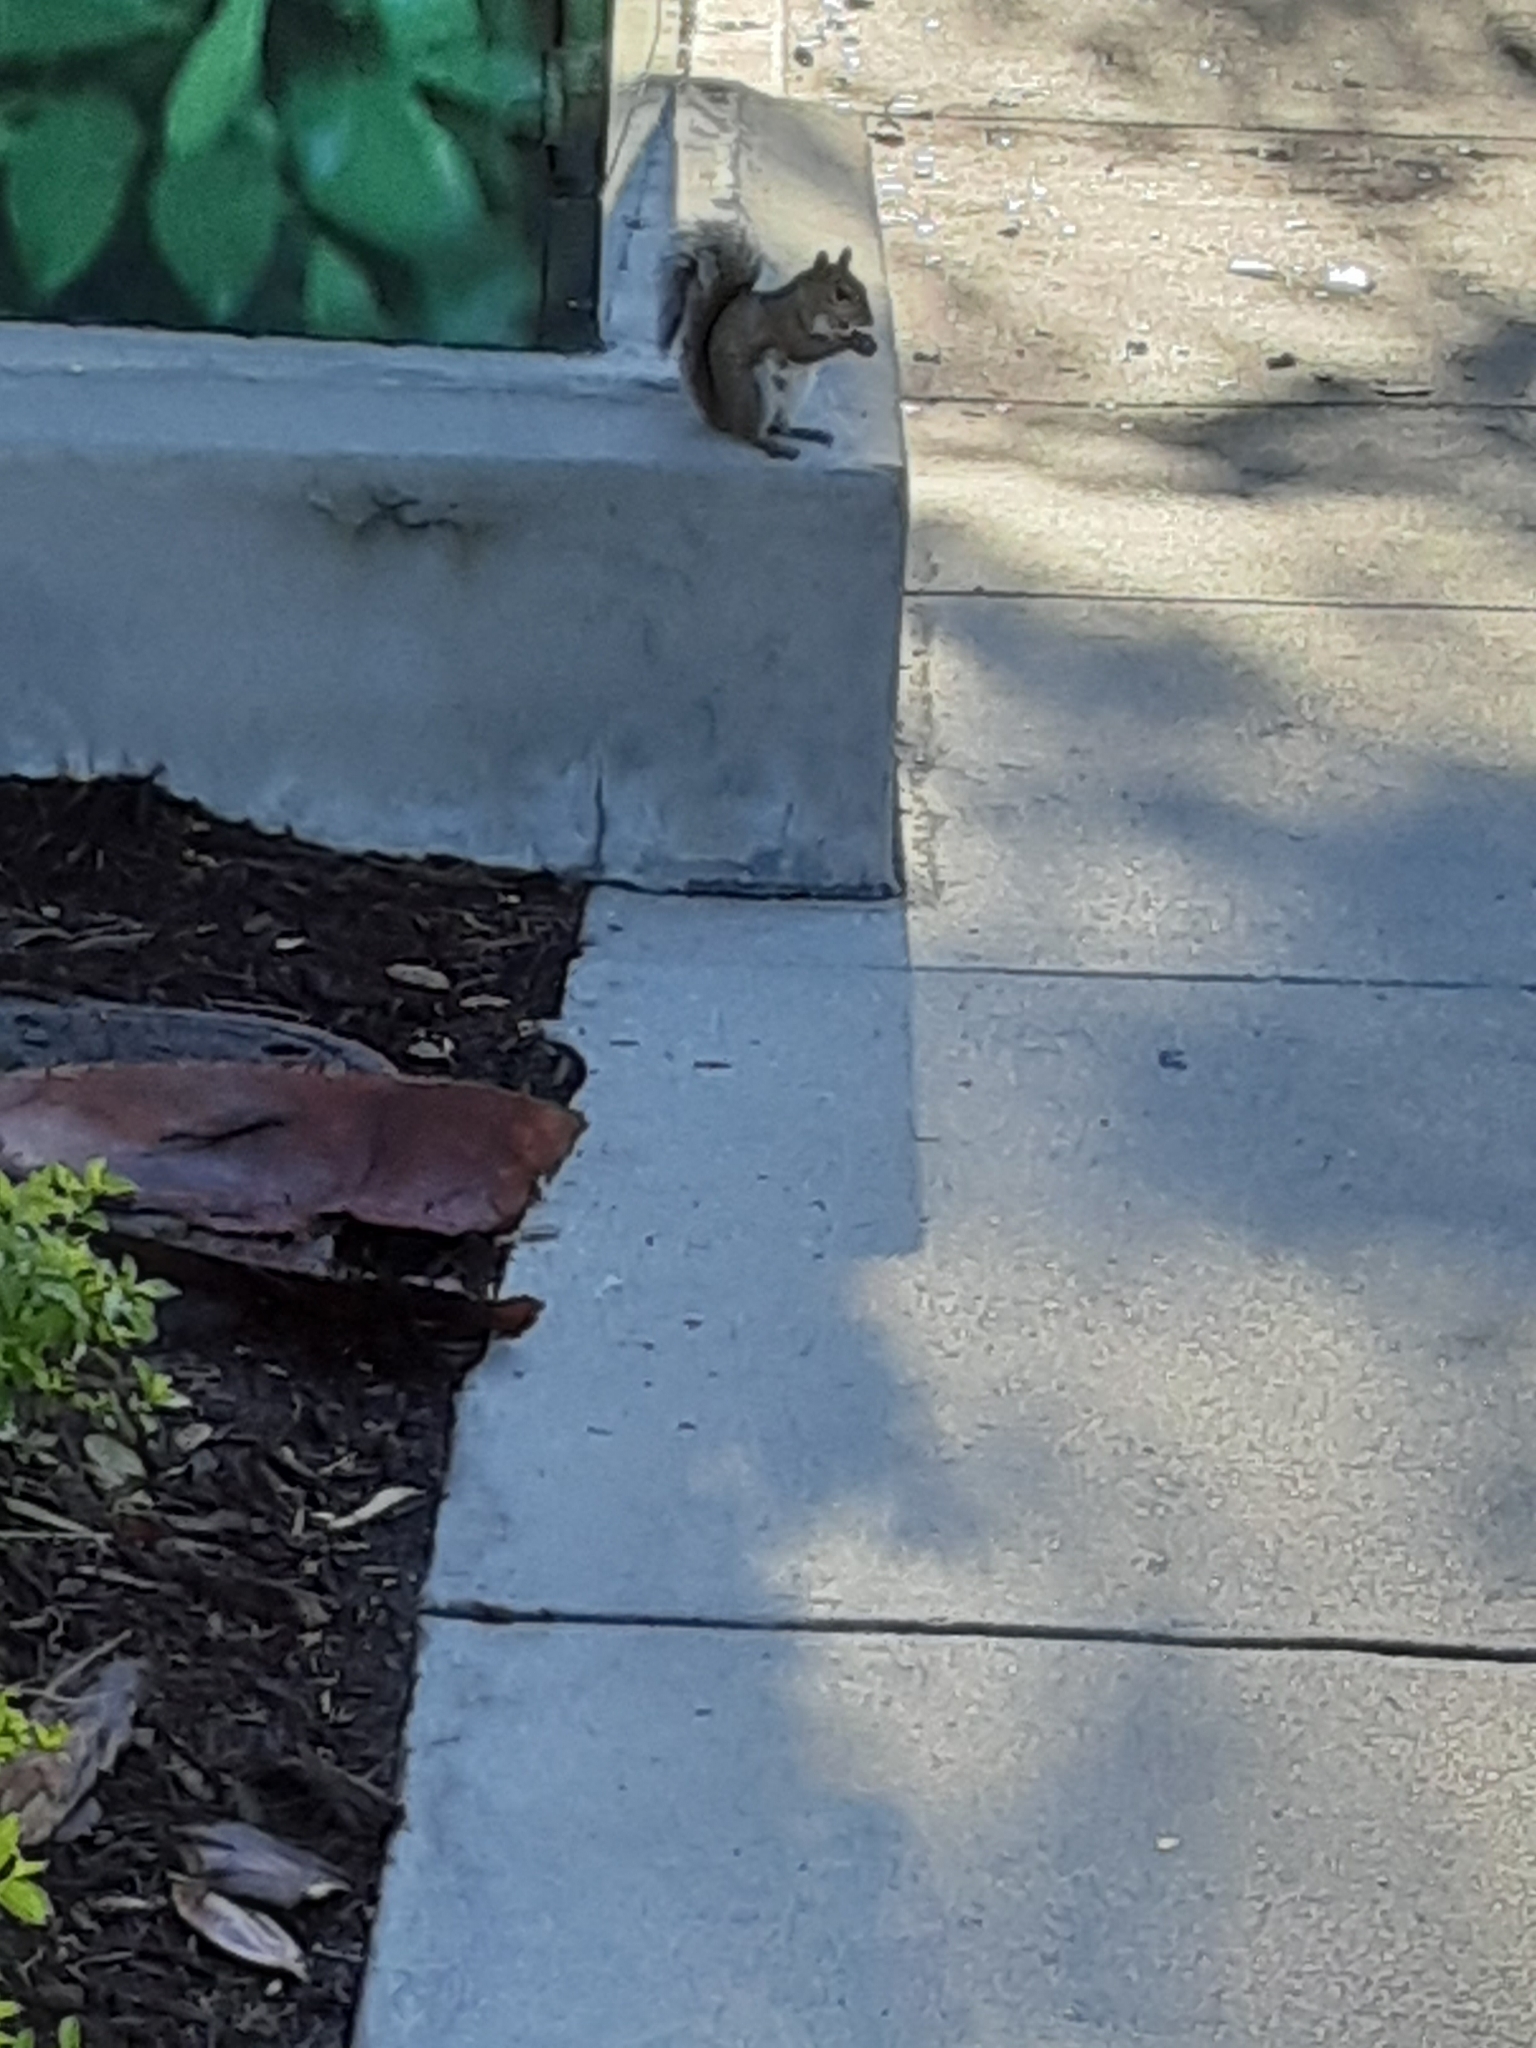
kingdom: Animalia
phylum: Chordata
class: Mammalia
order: Rodentia
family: Sciuridae
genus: Sciurus
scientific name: Sciurus carolinensis
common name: Eastern gray squirrel
